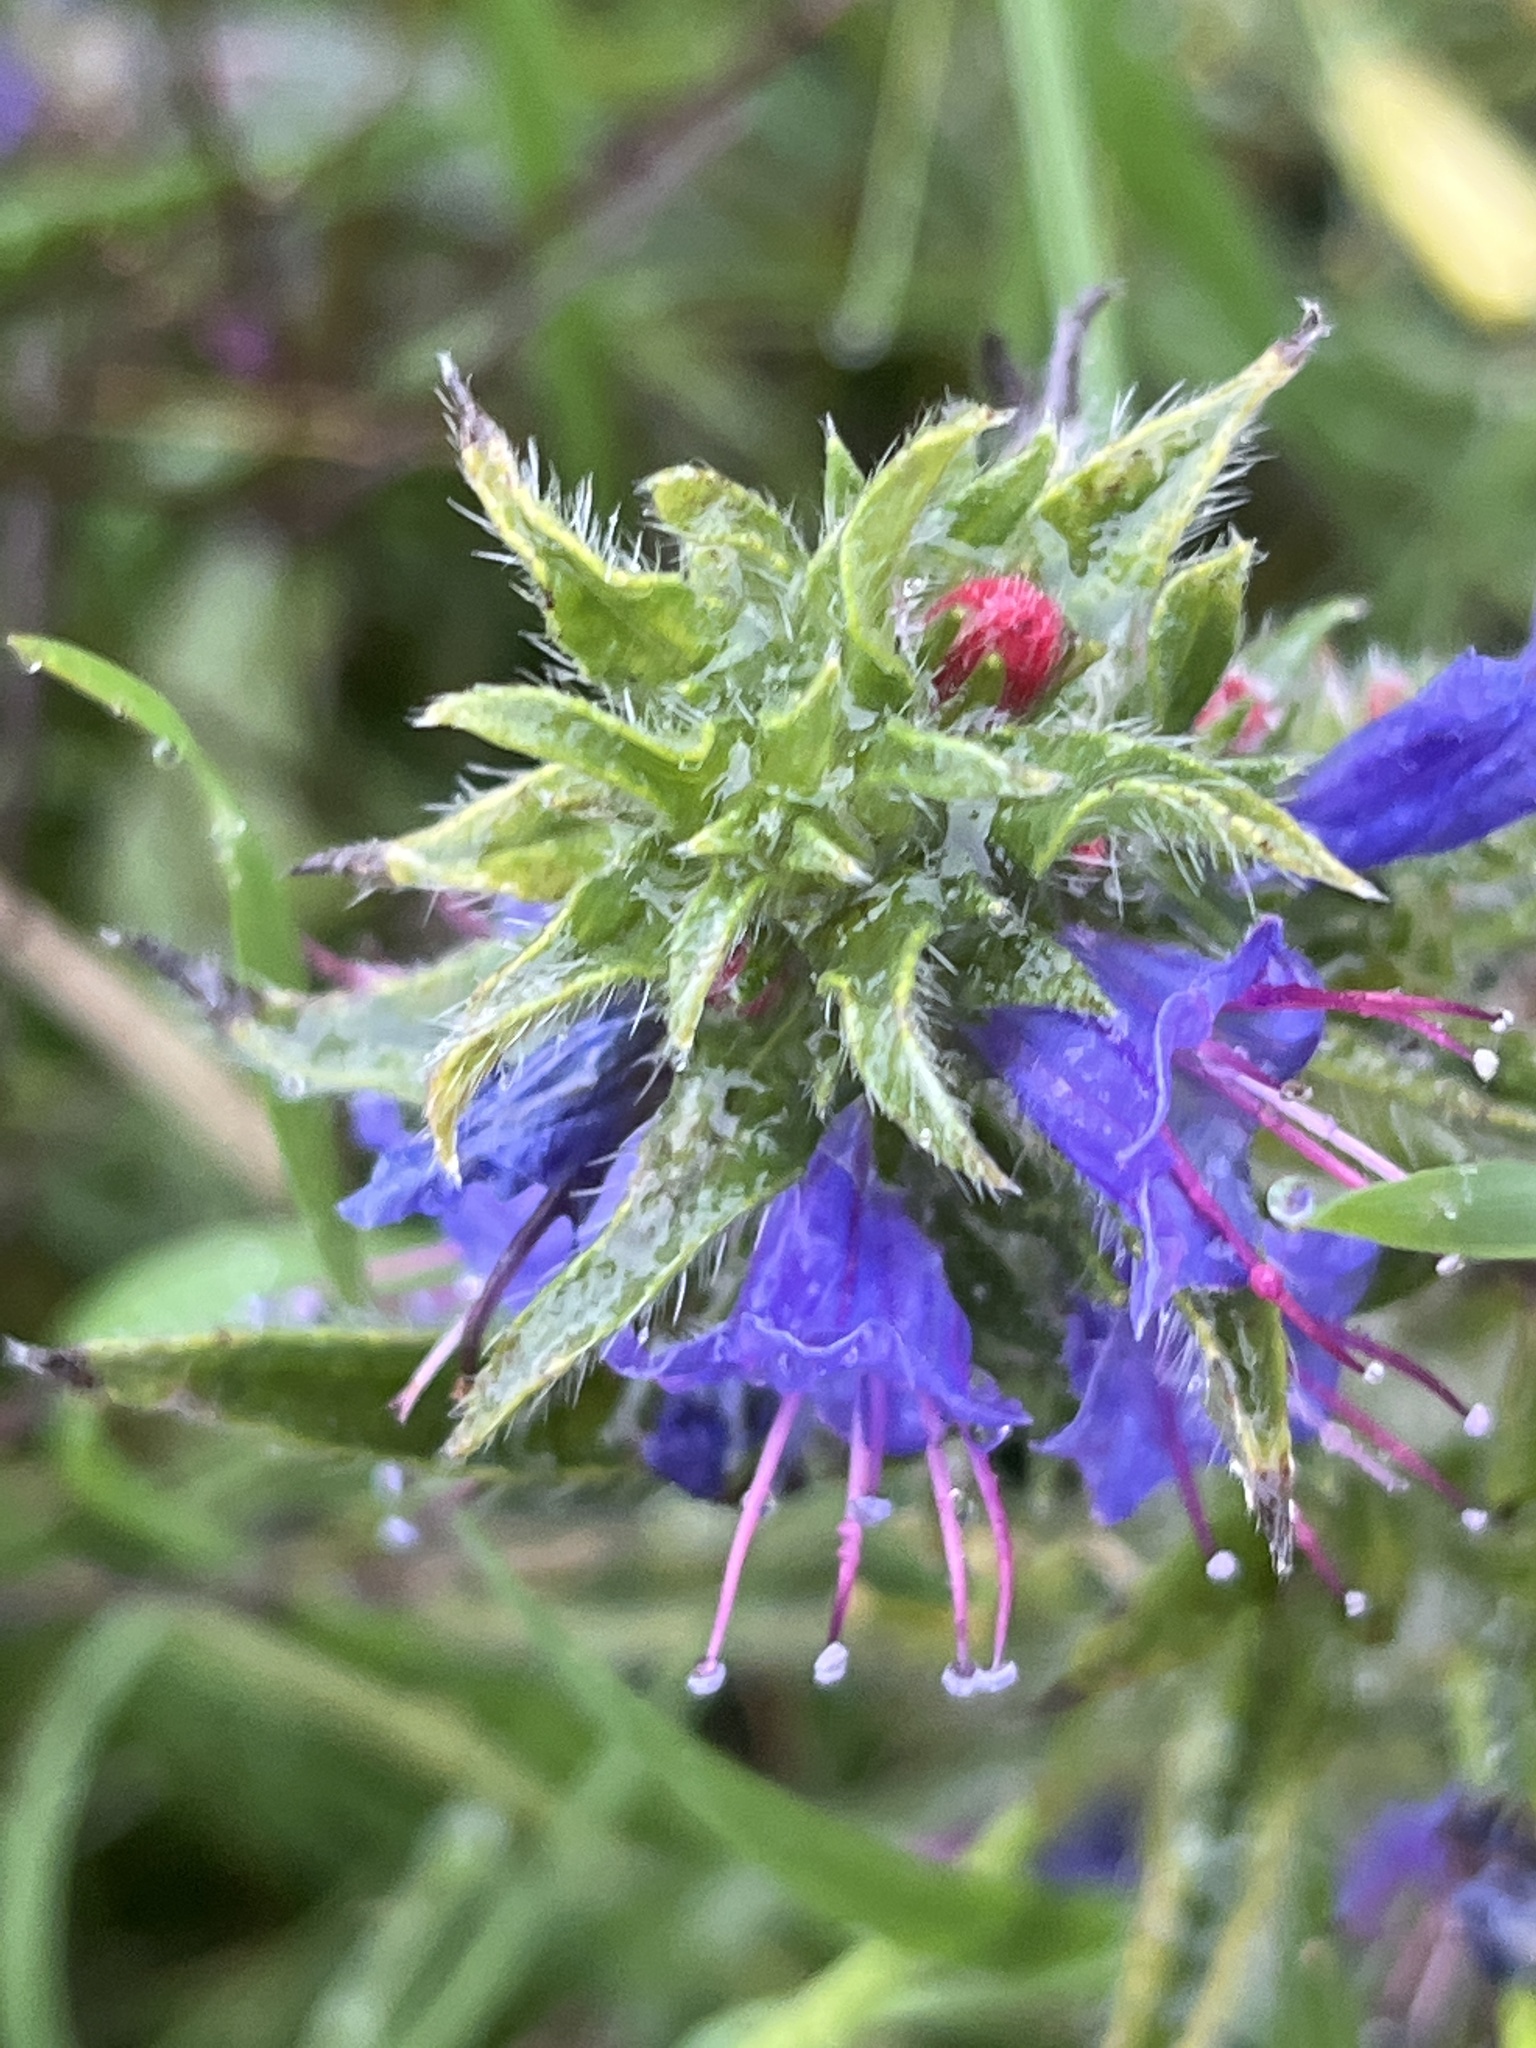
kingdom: Plantae
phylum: Tracheophyta
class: Magnoliopsida
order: Boraginales
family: Boraginaceae
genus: Echium
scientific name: Echium vulgare
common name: Common viper's bugloss
